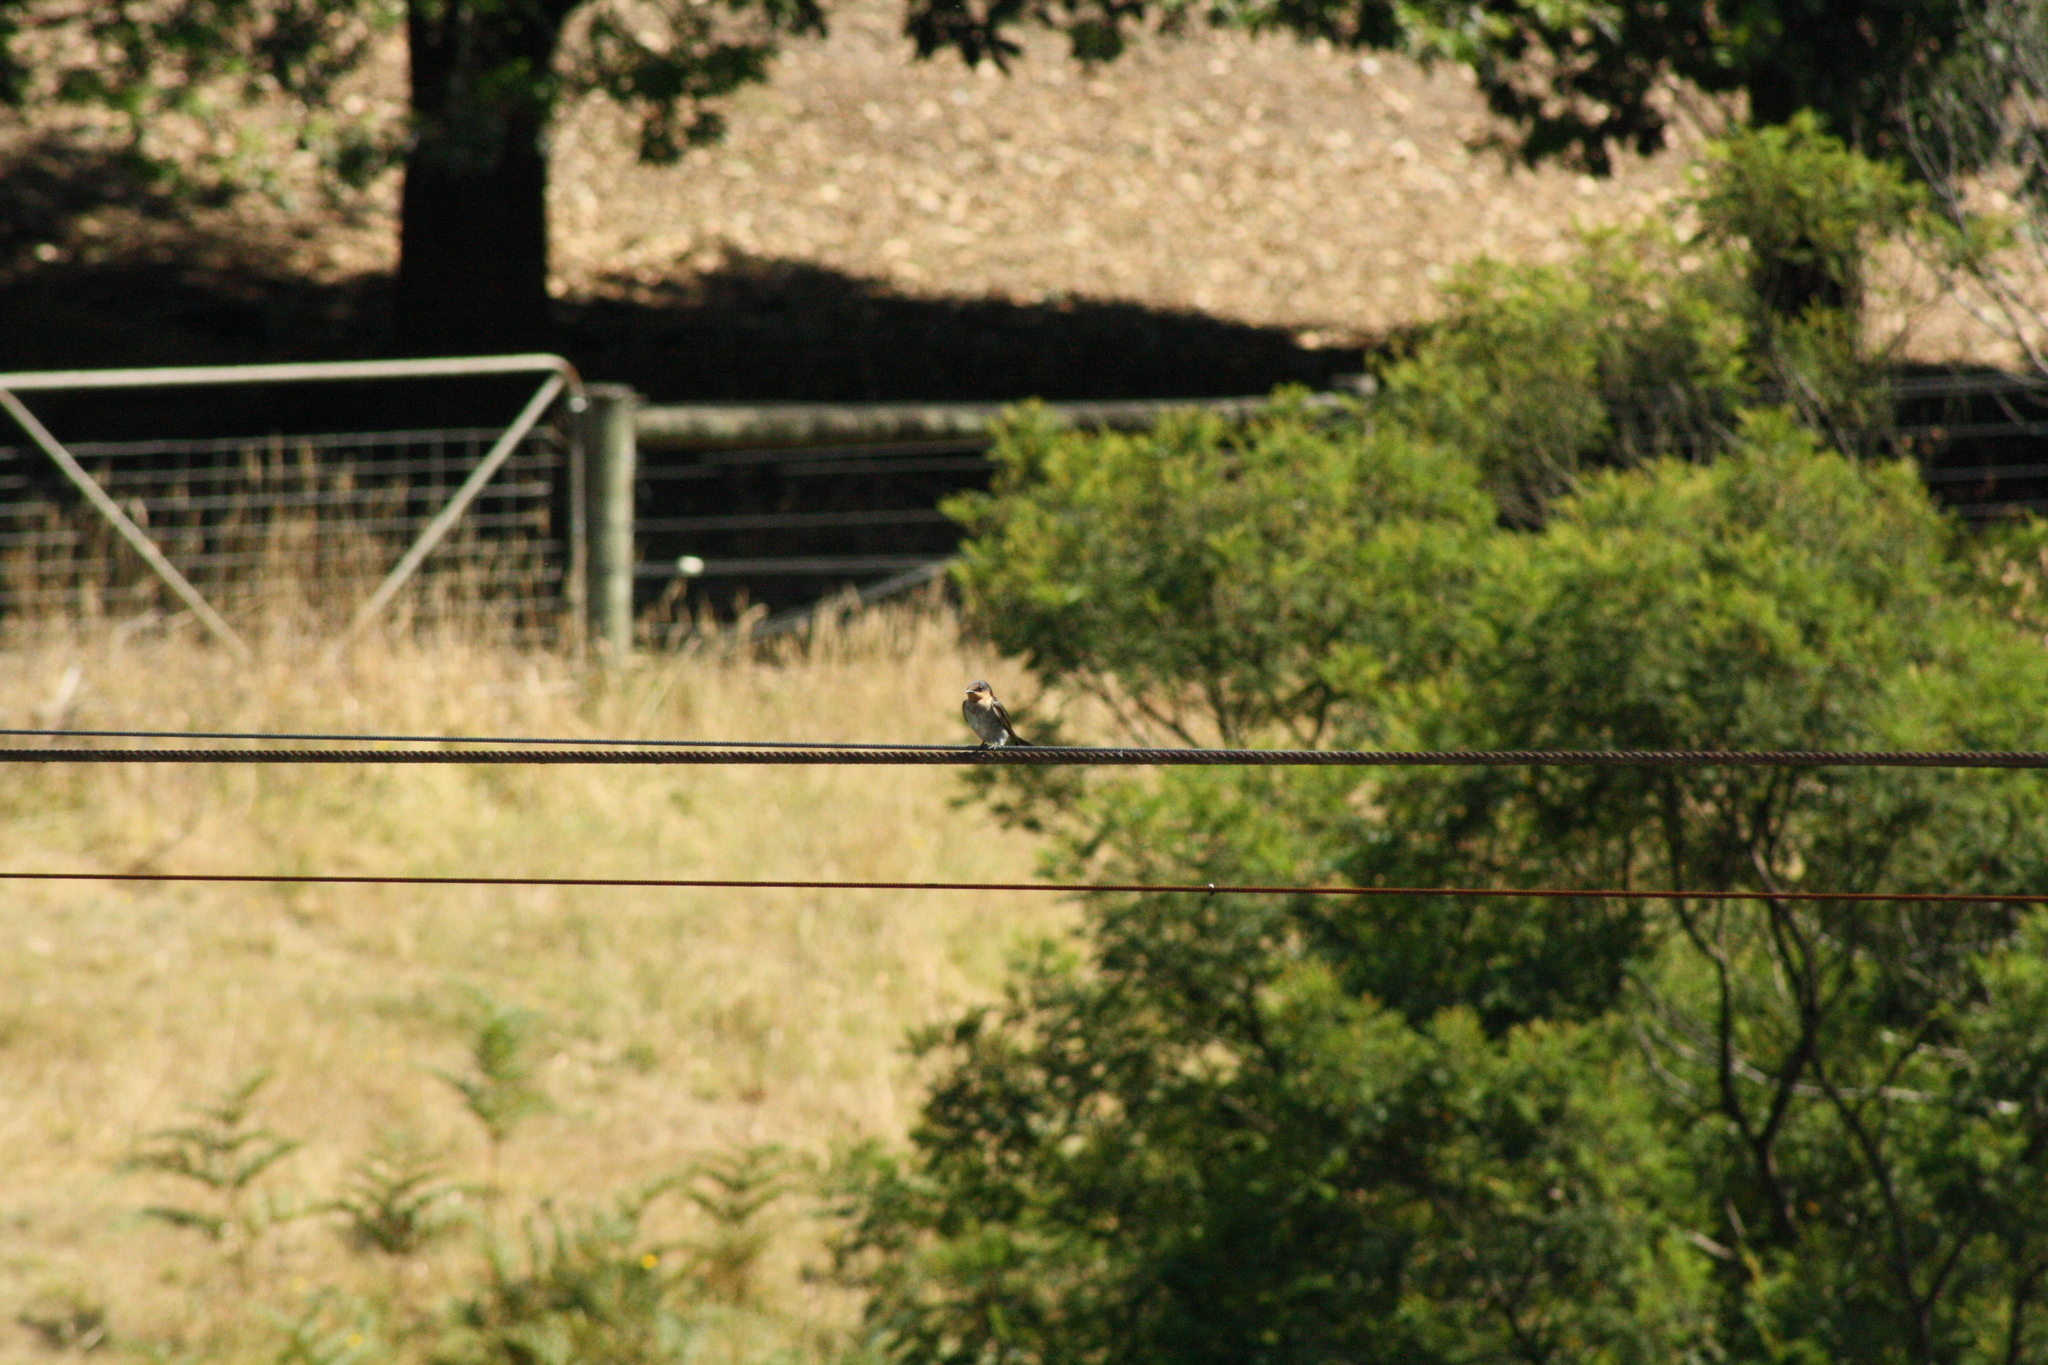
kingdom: Animalia
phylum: Chordata
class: Aves
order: Passeriformes
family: Hirundinidae
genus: Hirundo
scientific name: Hirundo neoxena
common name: Welcome swallow
